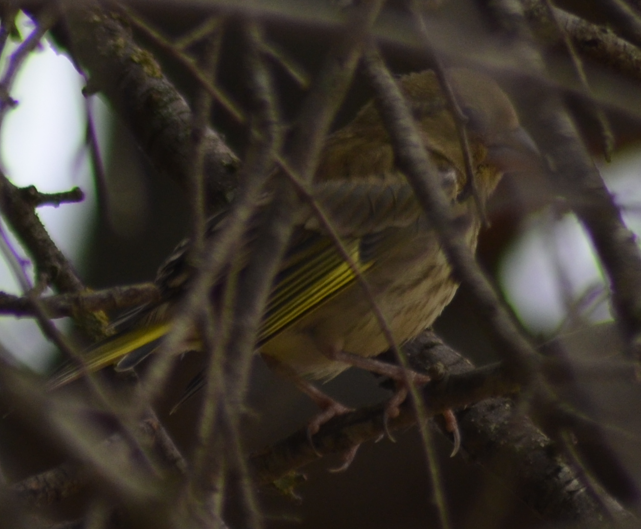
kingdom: Plantae
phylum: Tracheophyta
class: Liliopsida
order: Poales
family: Poaceae
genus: Chloris
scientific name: Chloris chloris
